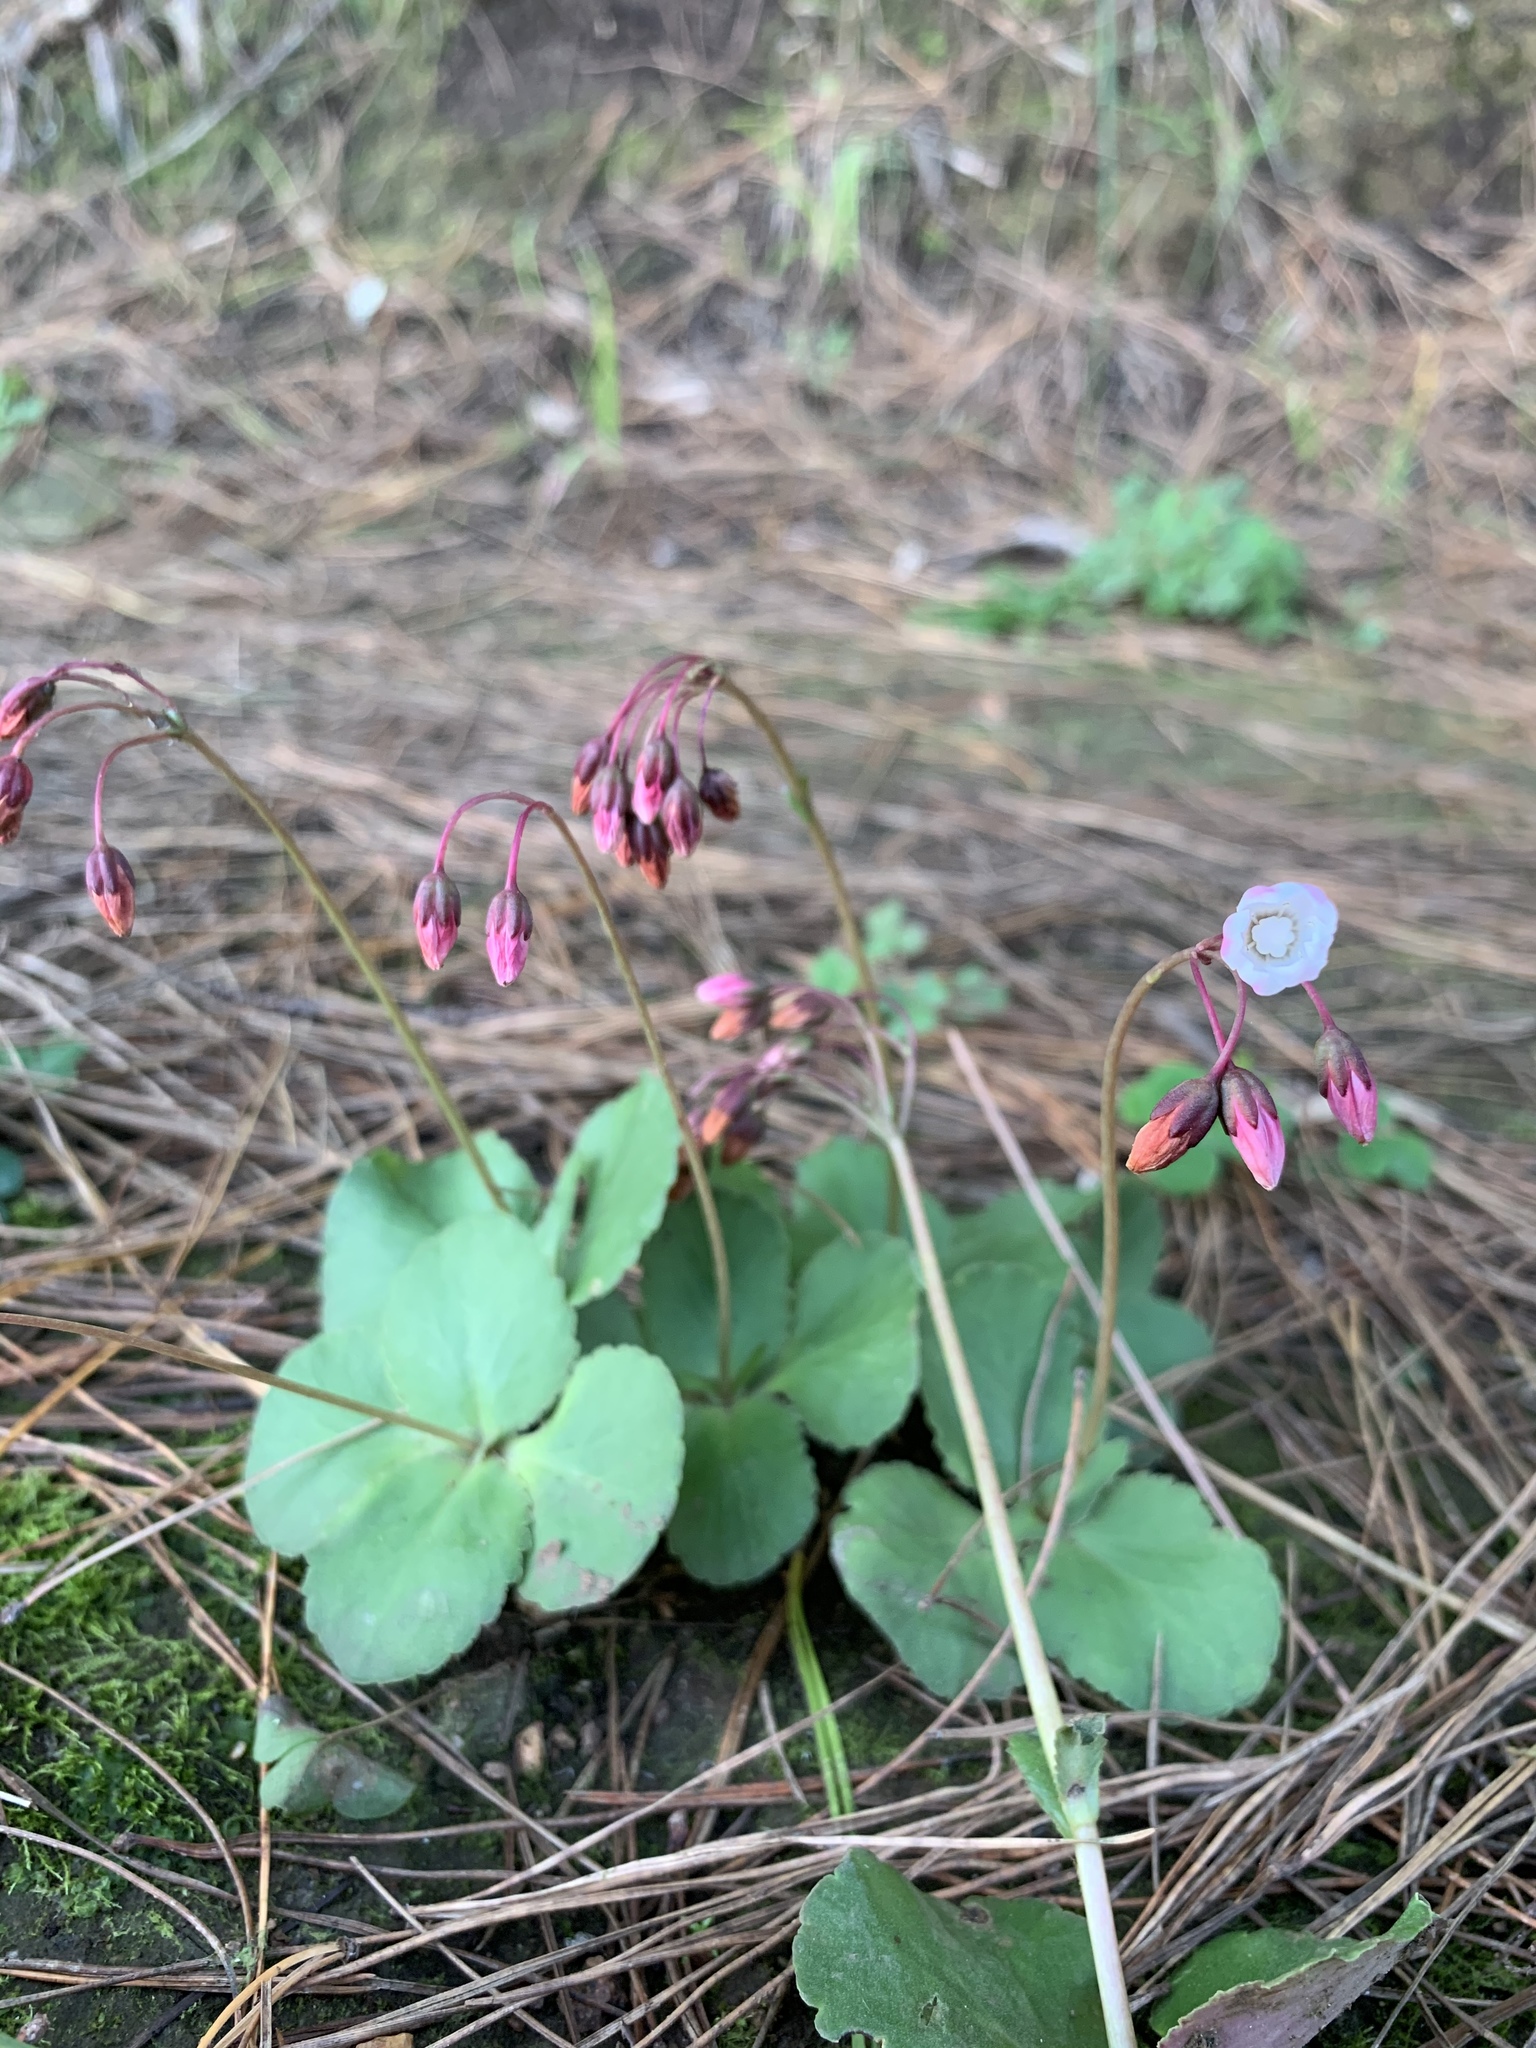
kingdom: Plantae
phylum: Tracheophyta
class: Magnoliopsida
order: Saxifragales
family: Crassulaceae
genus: Crassula
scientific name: Crassula capensis
